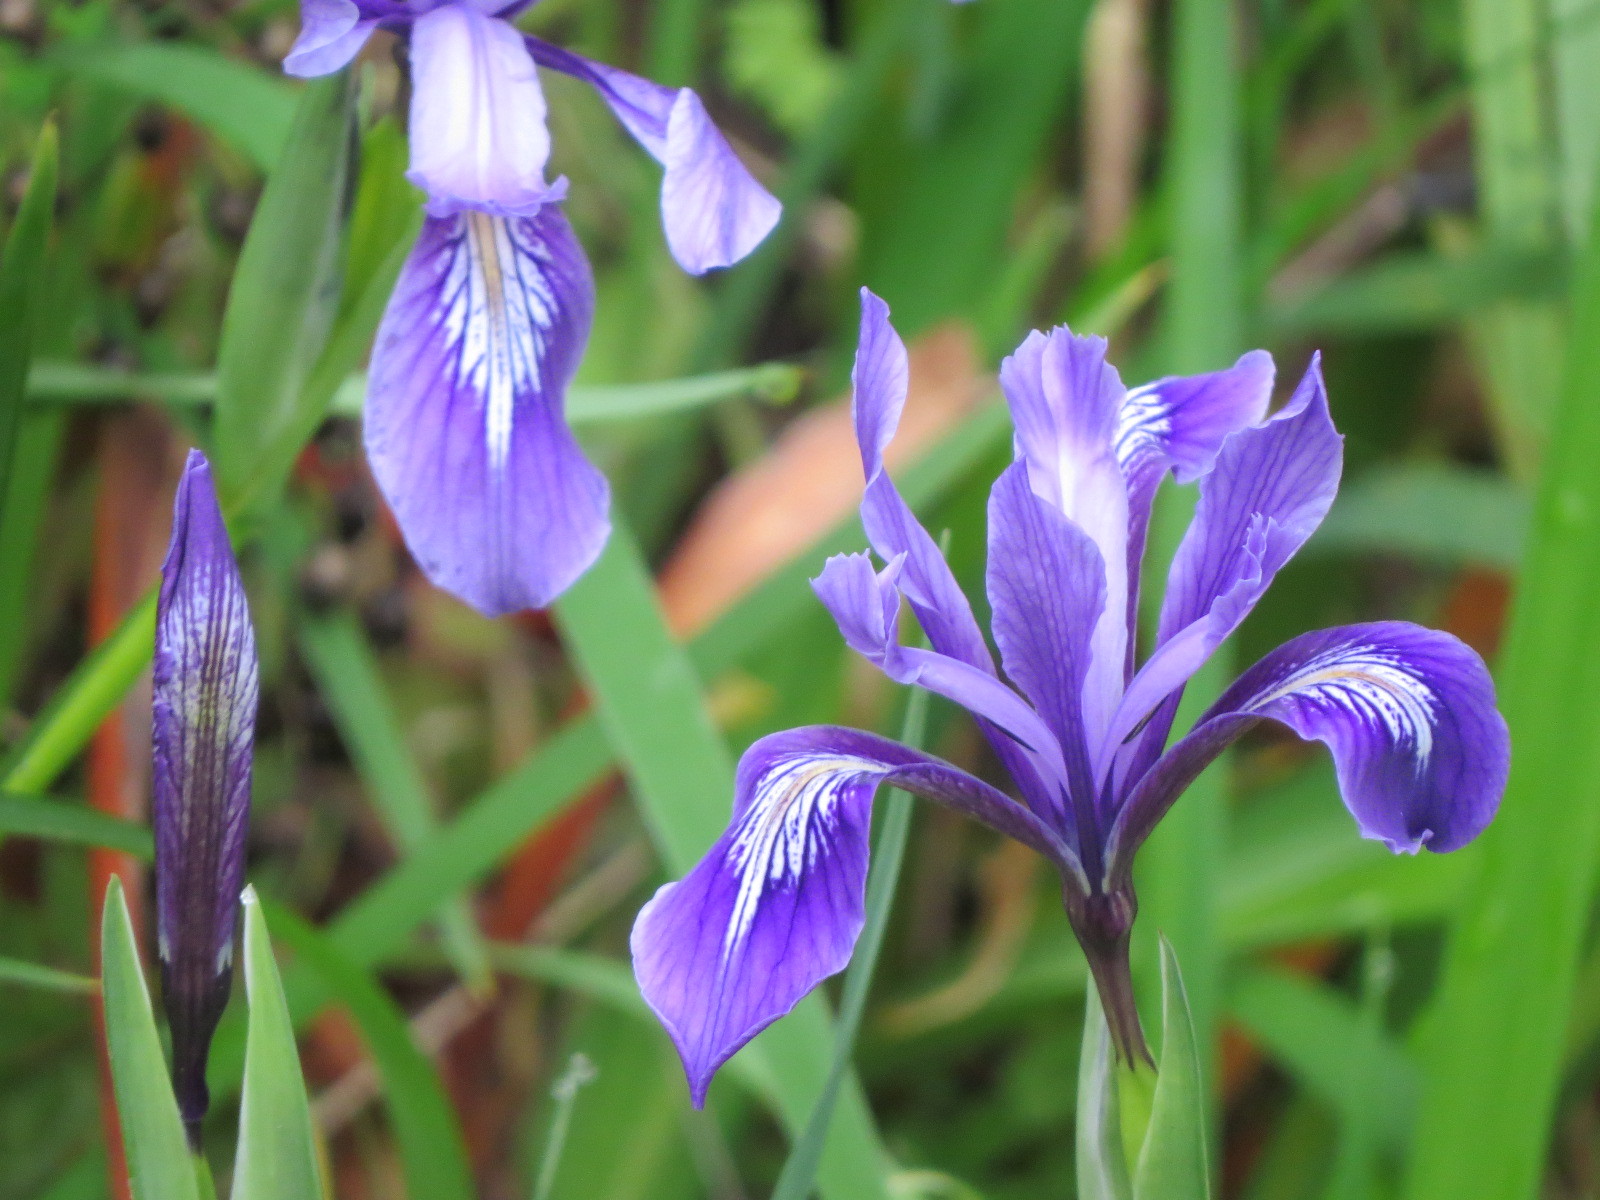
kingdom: Plantae
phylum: Tracheophyta
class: Liliopsida
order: Asparagales
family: Iridaceae
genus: Iris
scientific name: Iris douglasiana
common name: Marin iris
